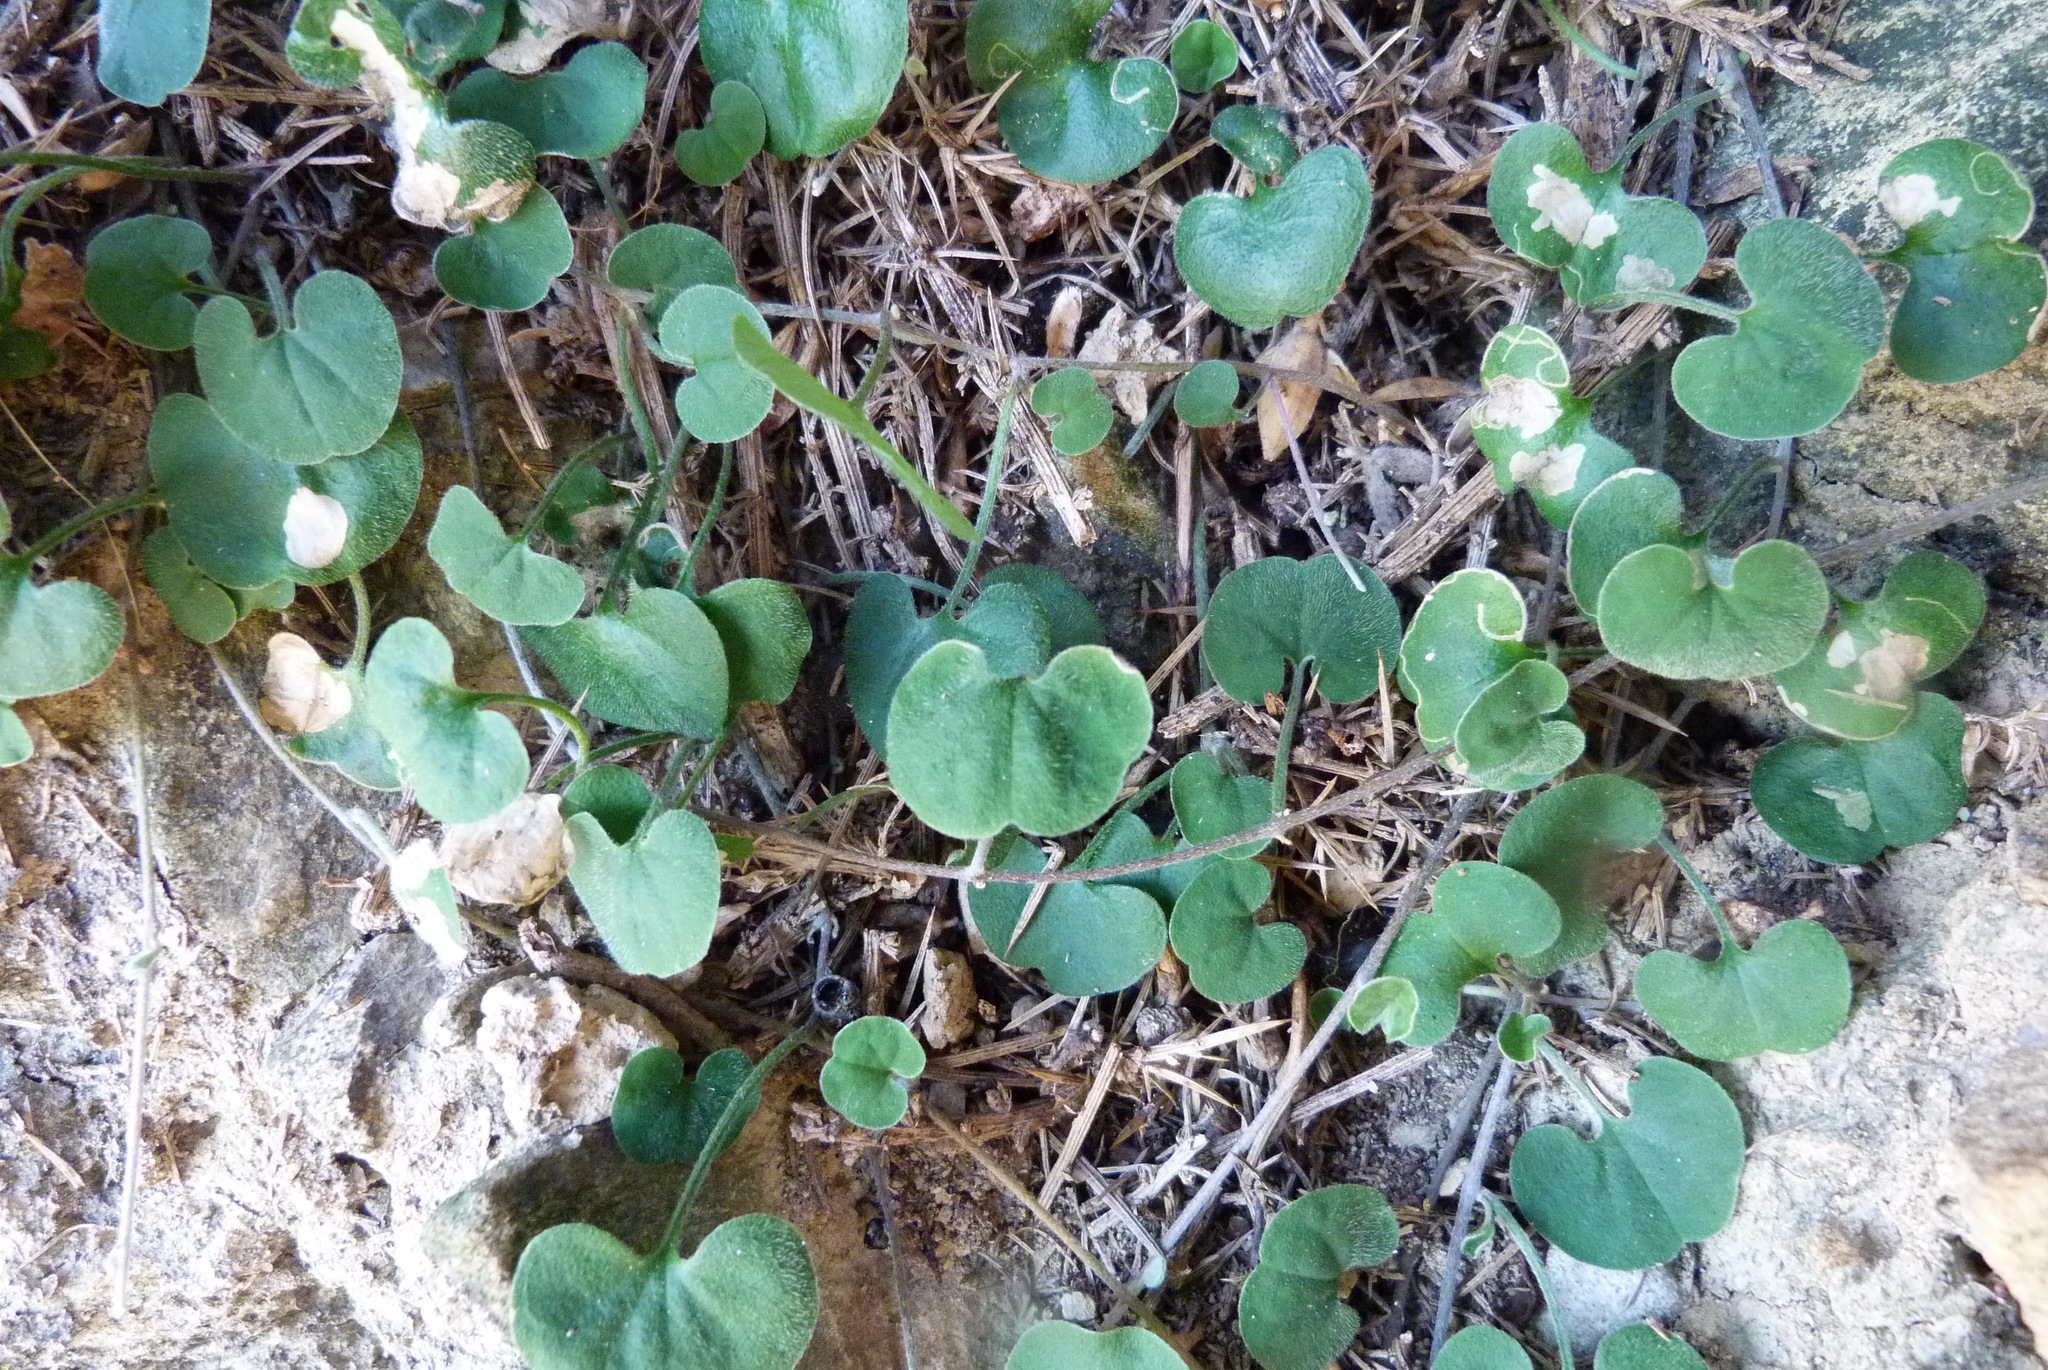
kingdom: Plantae
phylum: Tracheophyta
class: Magnoliopsida
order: Solanales
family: Convolvulaceae
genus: Dichondra
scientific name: Dichondra repens
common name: Kidneyweed
